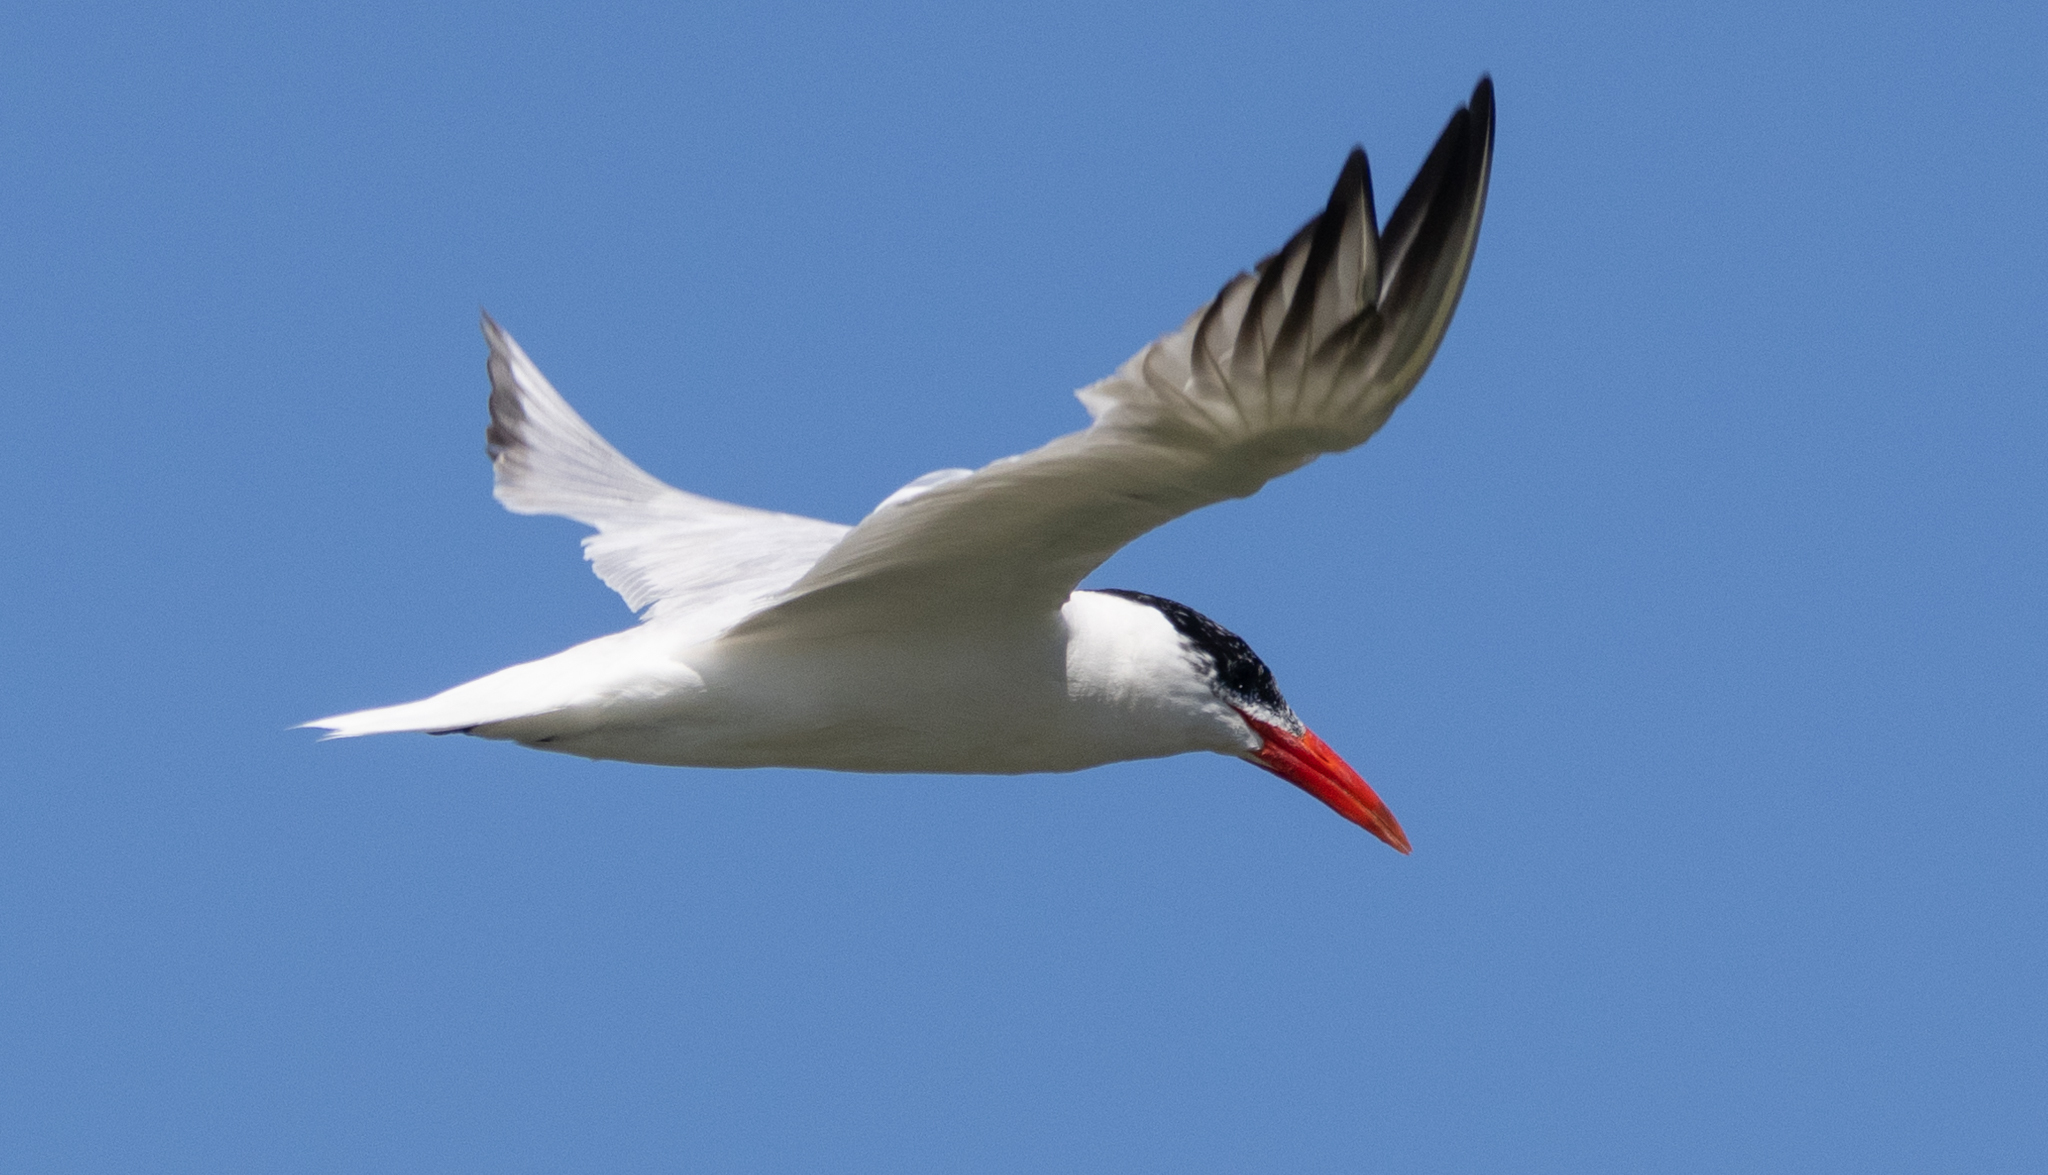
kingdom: Animalia
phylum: Chordata
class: Aves
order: Charadriiformes
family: Laridae
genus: Hydroprogne
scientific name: Hydroprogne caspia
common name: Caspian tern
